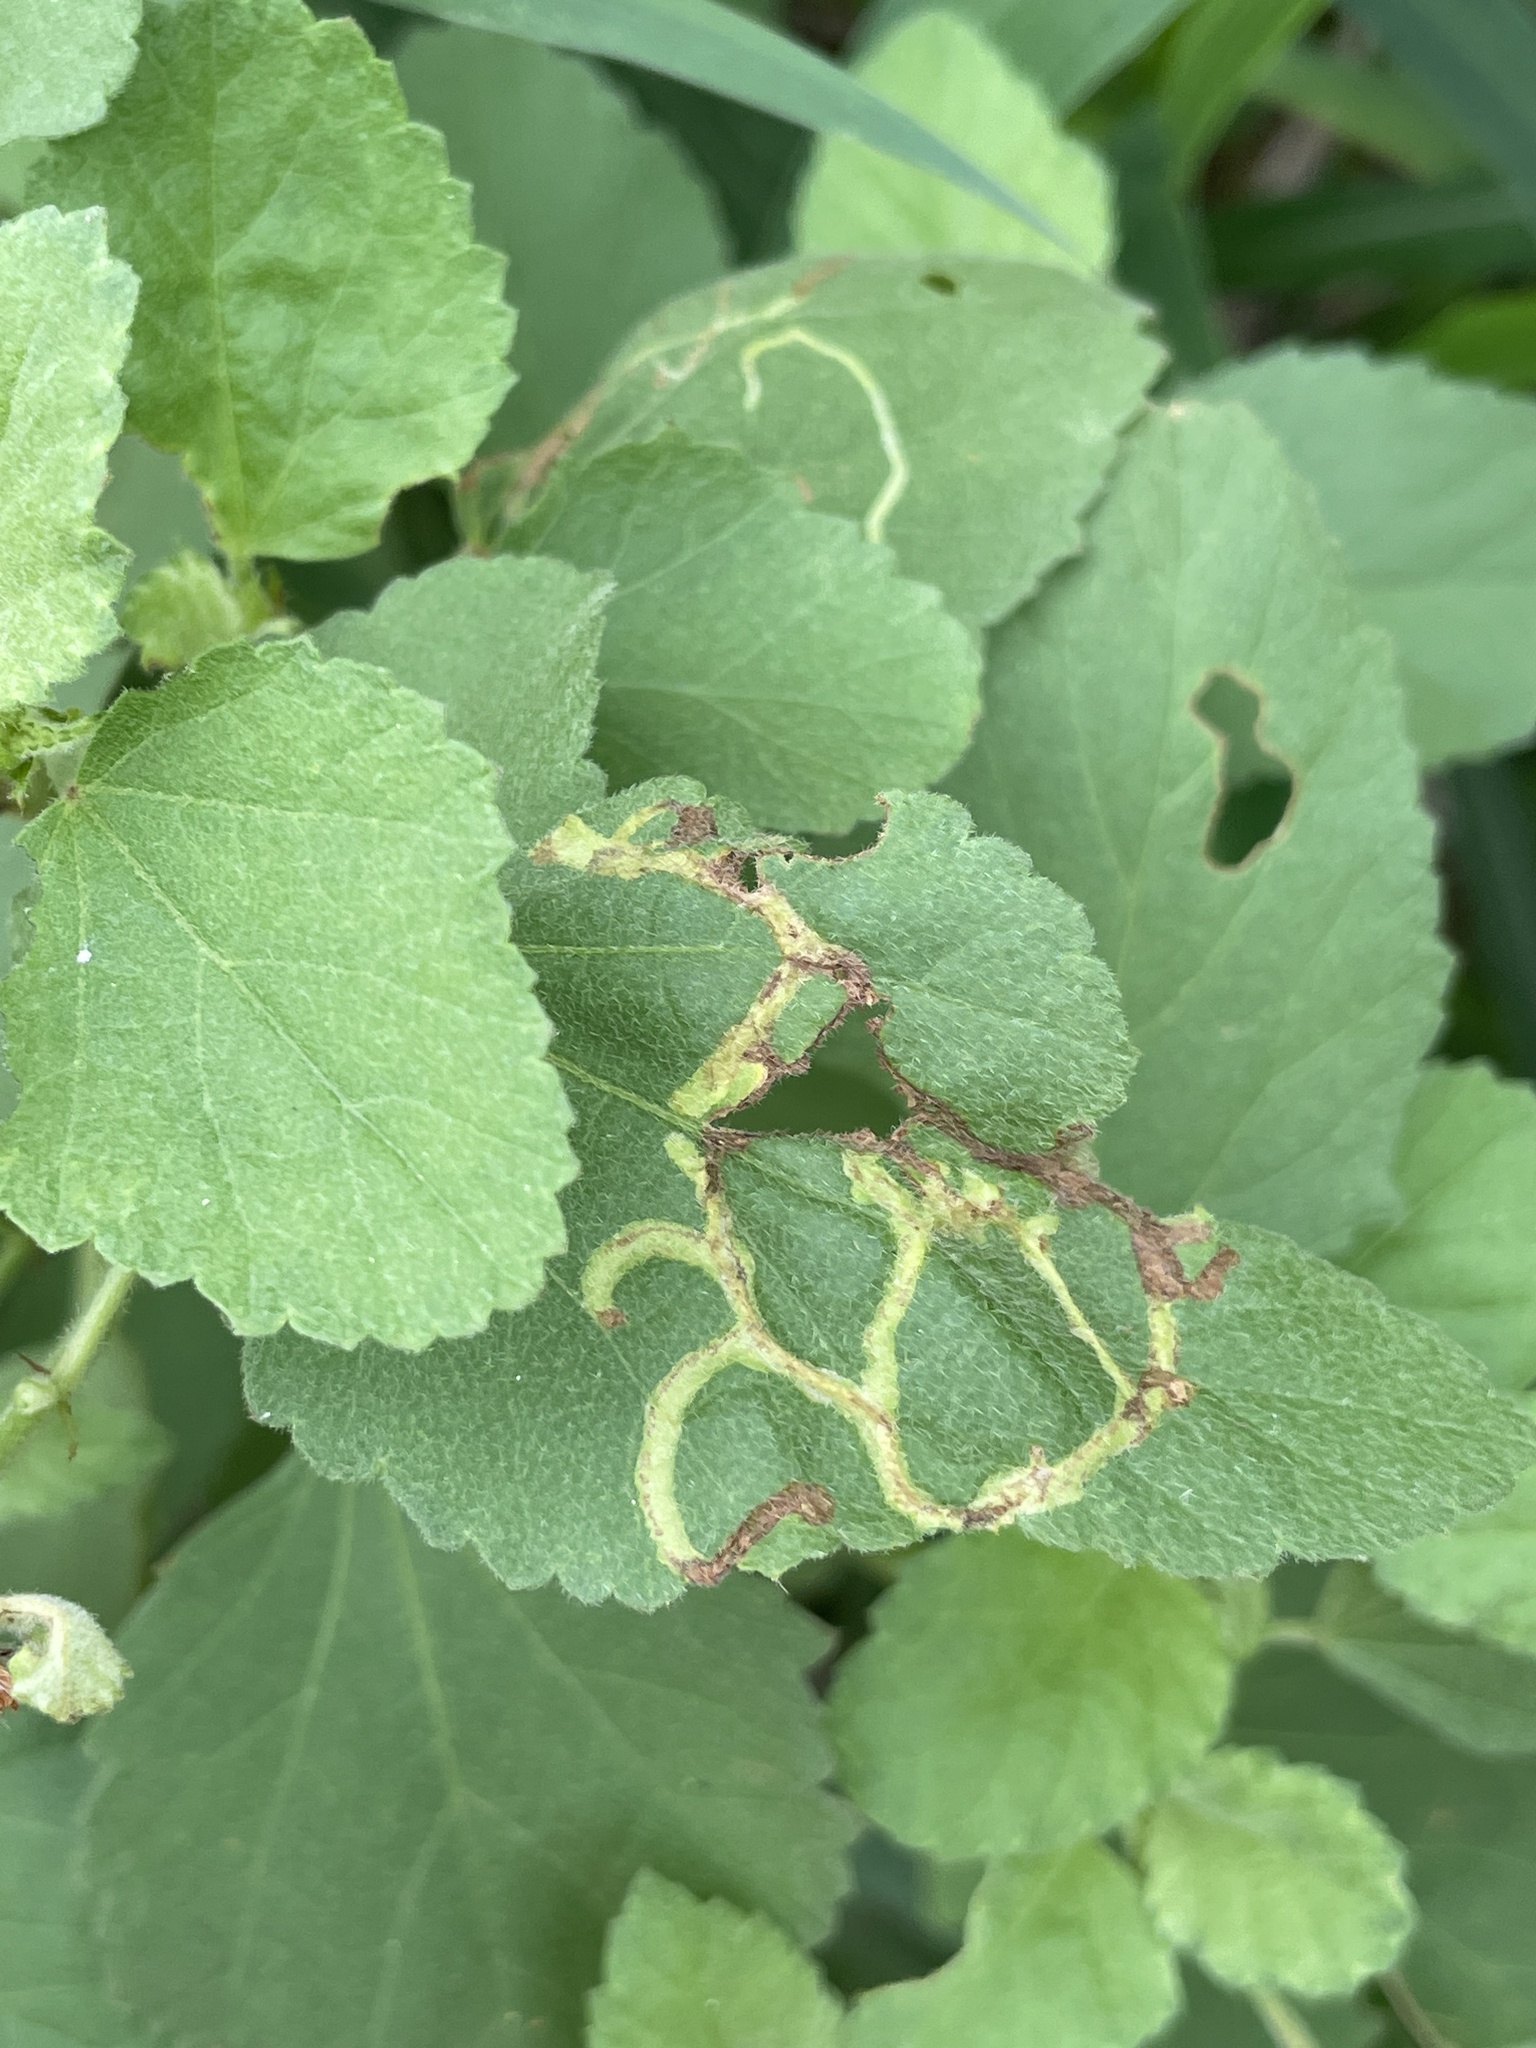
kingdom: Animalia
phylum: Arthropoda
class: Insecta
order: Diptera
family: Agromyzidae
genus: Calycomyza
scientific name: Calycomyza malvae
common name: Mallow leaf miner
